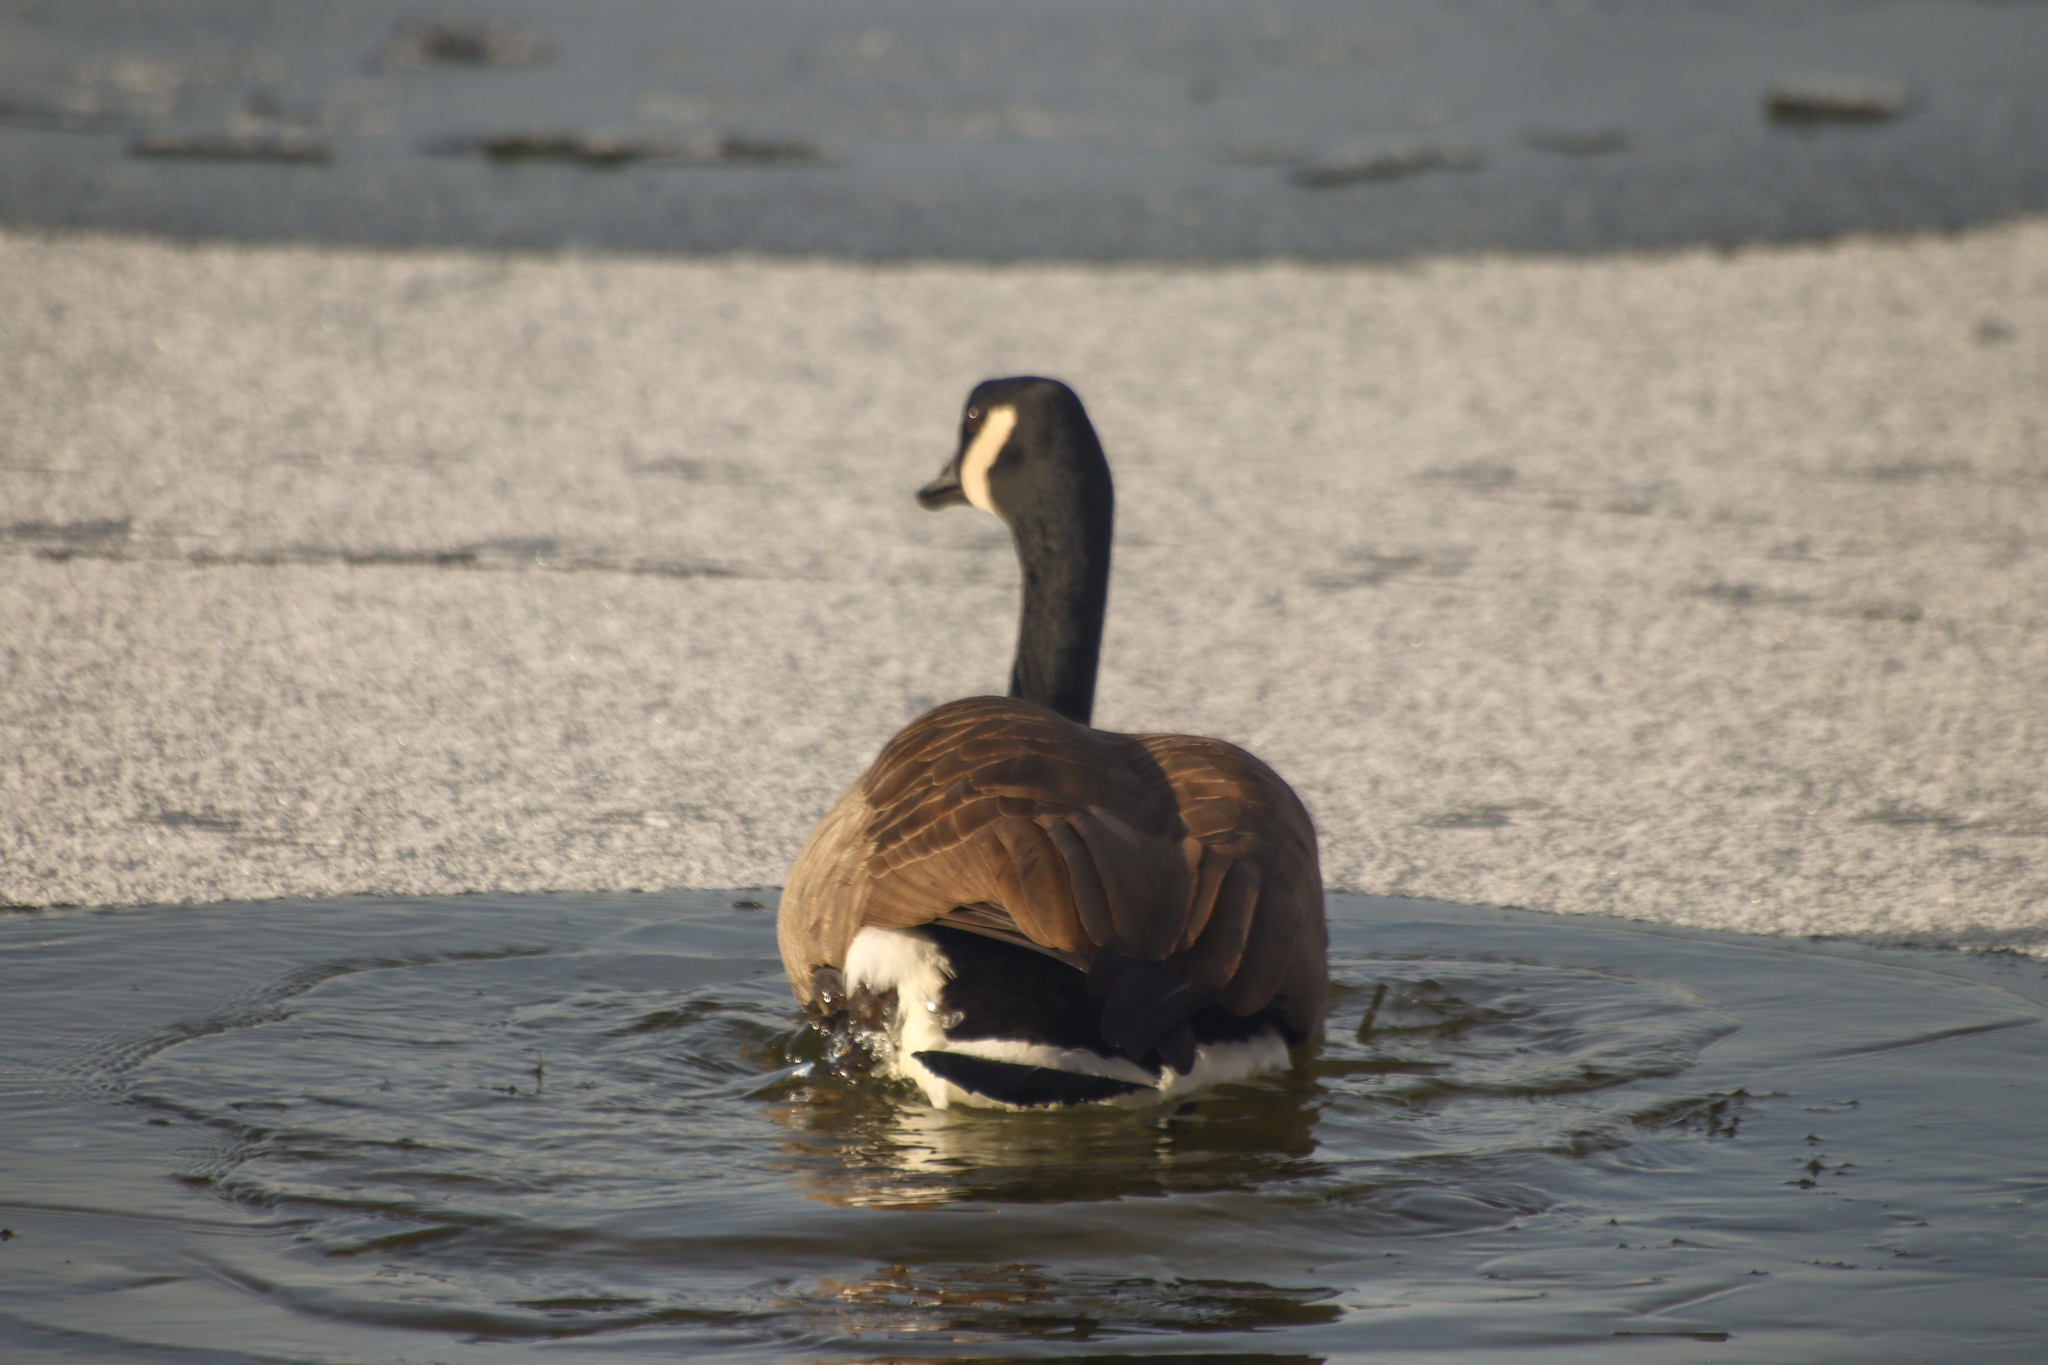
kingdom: Animalia
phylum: Chordata
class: Aves
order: Anseriformes
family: Anatidae
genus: Branta
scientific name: Branta canadensis
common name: Canada goose
